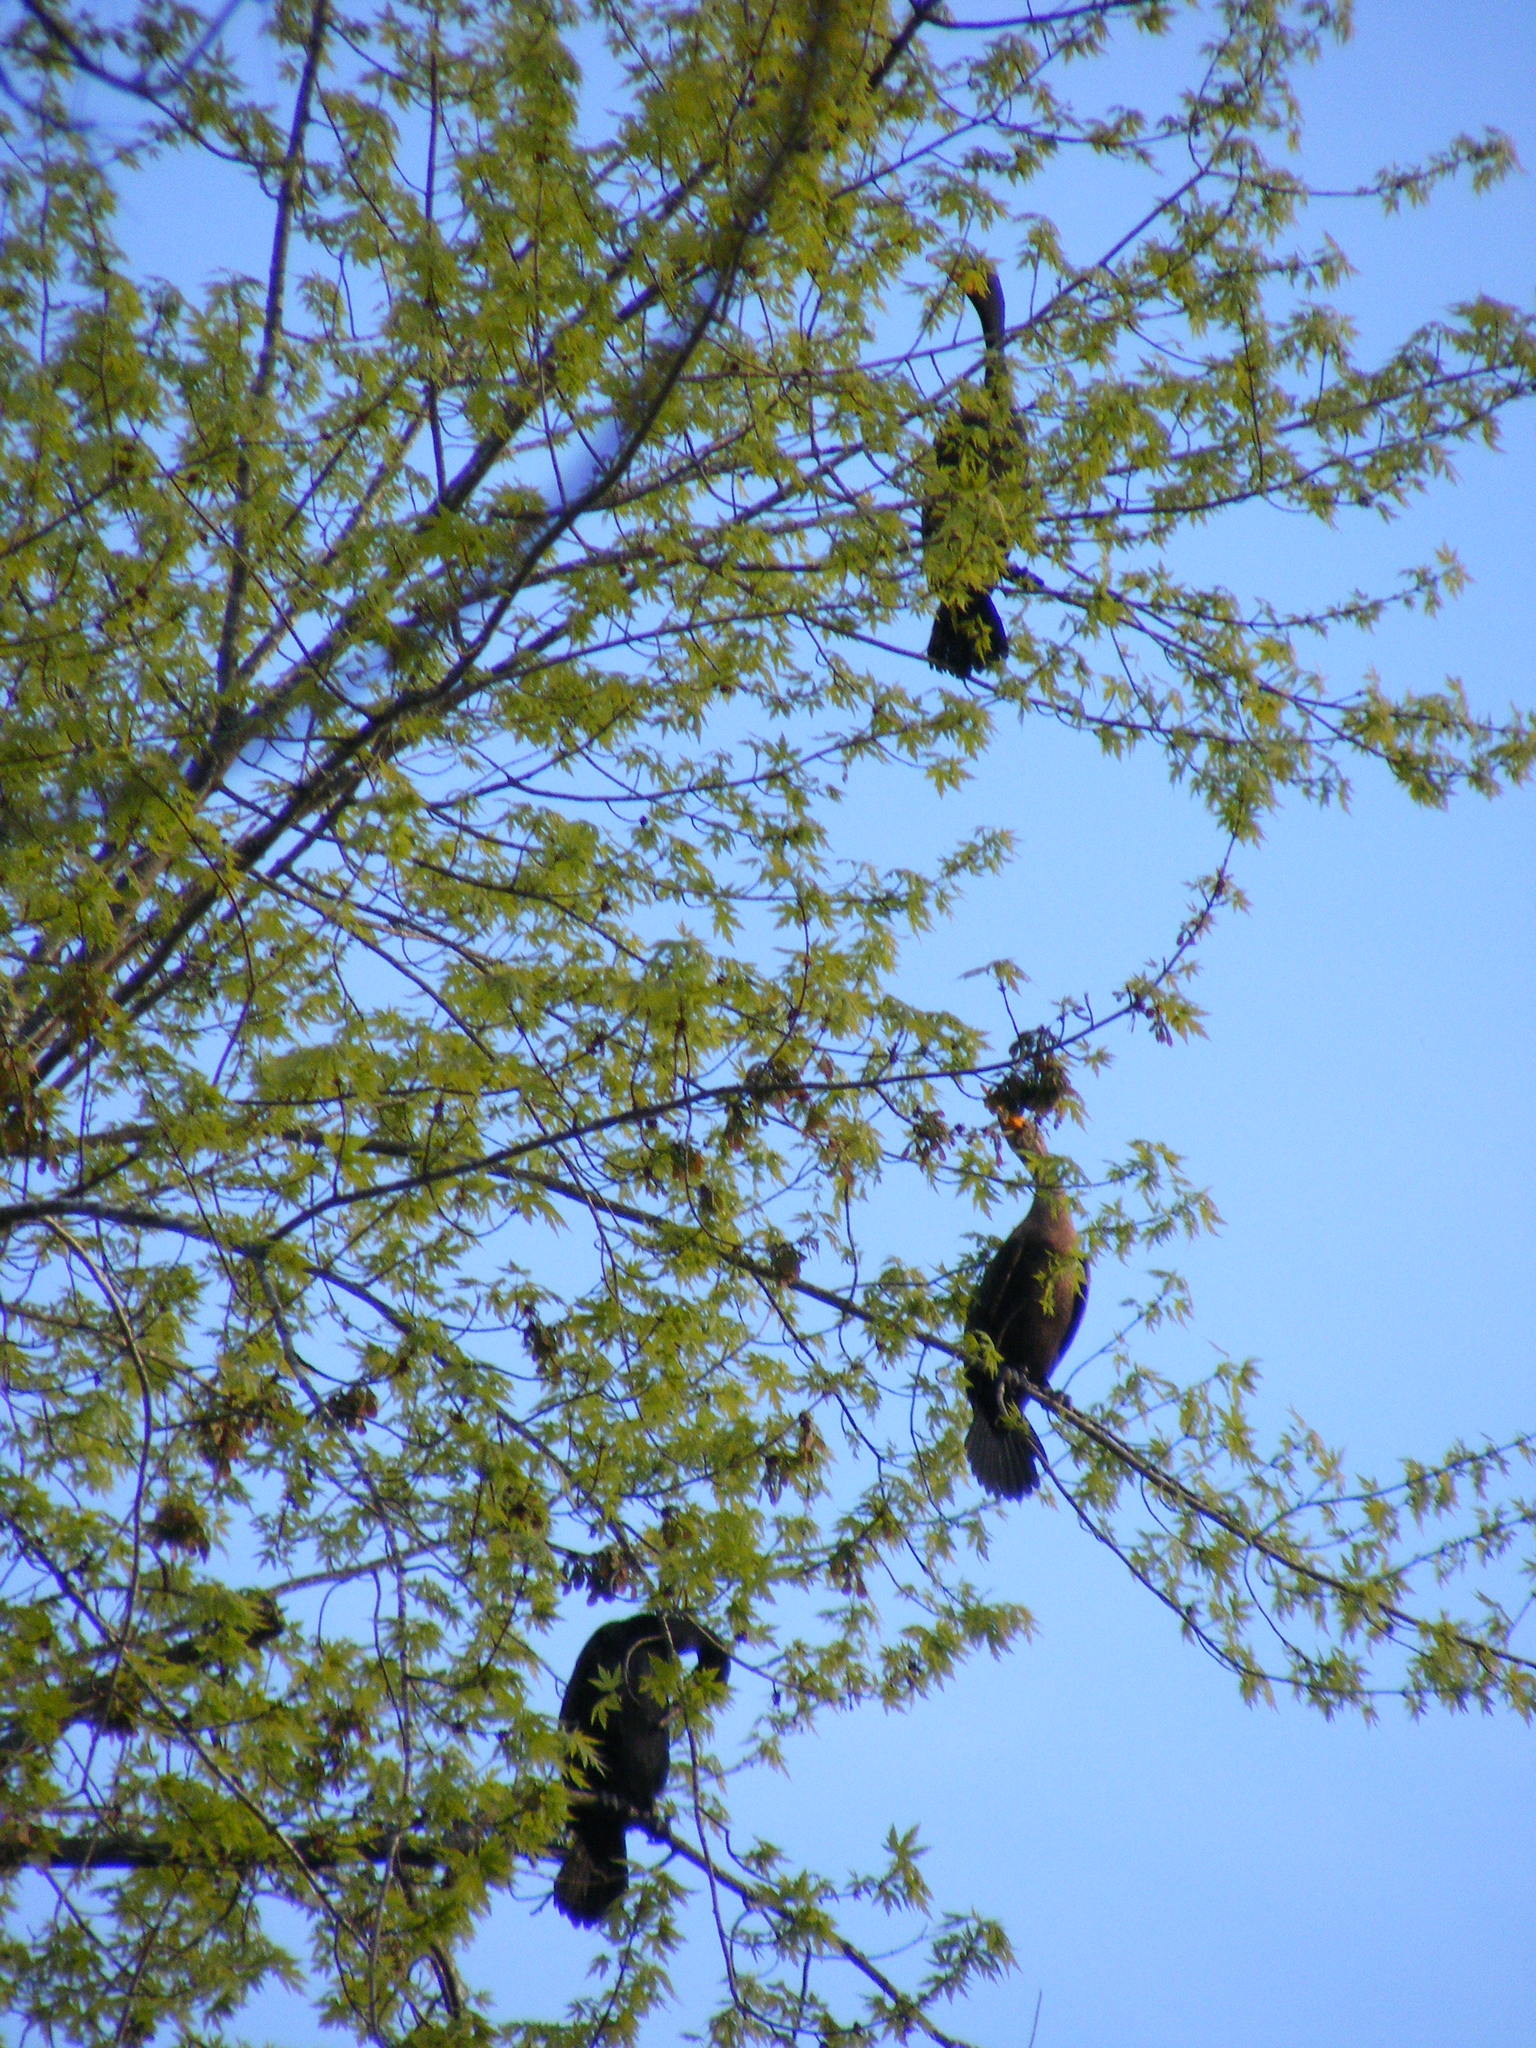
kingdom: Animalia
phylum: Chordata
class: Aves
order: Suliformes
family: Phalacrocoracidae
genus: Phalacrocorax
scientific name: Phalacrocorax auritus
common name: Double-crested cormorant
